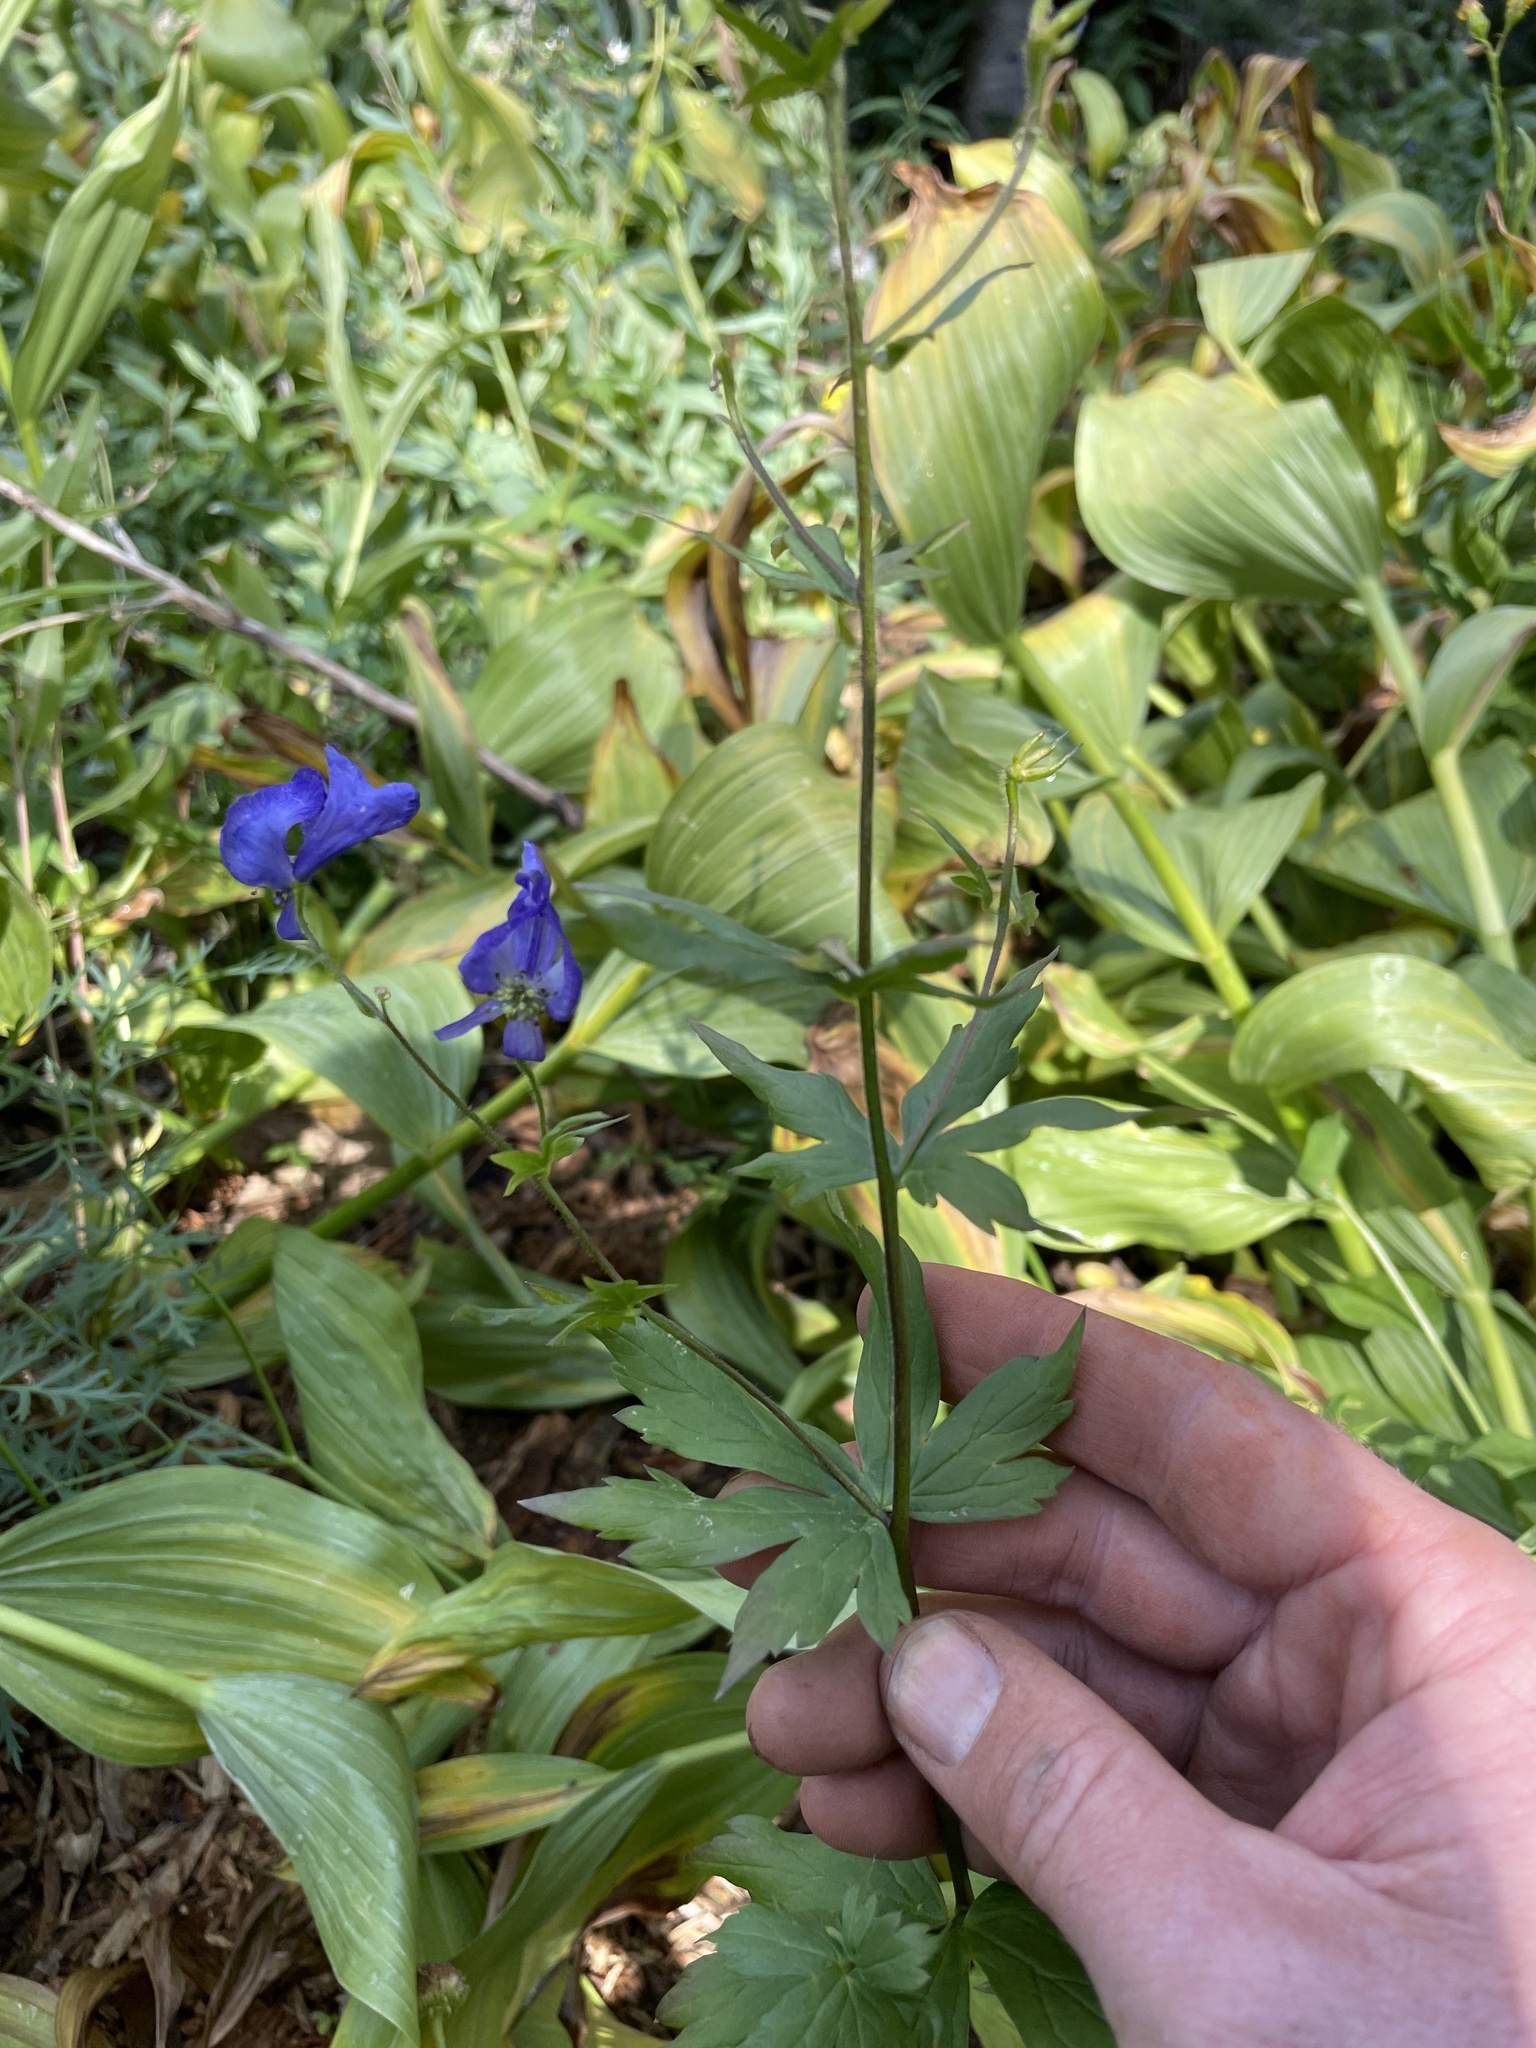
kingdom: Plantae
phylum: Tracheophyta
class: Magnoliopsida
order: Ranunculales
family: Ranunculaceae
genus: Aconitum
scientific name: Aconitum columbianum
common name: Columbia aconite
